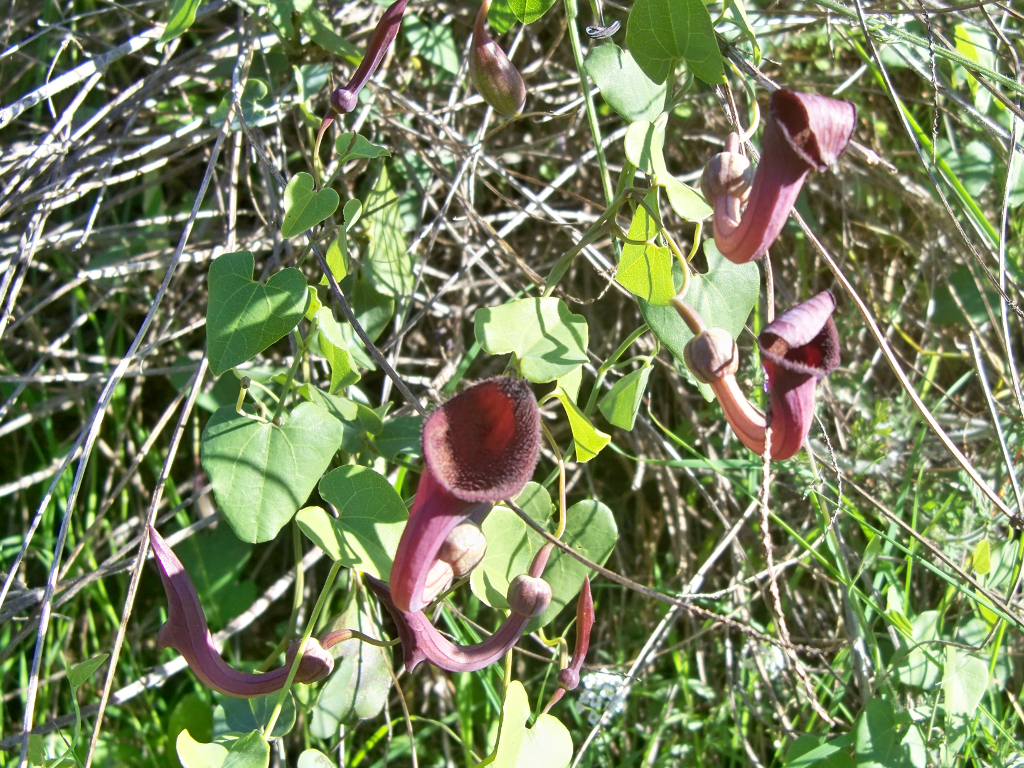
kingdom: Plantae
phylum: Tracheophyta
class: Magnoliopsida
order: Piperales
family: Aristolochiaceae
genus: Aristolochia
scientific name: Aristolochia baetica
